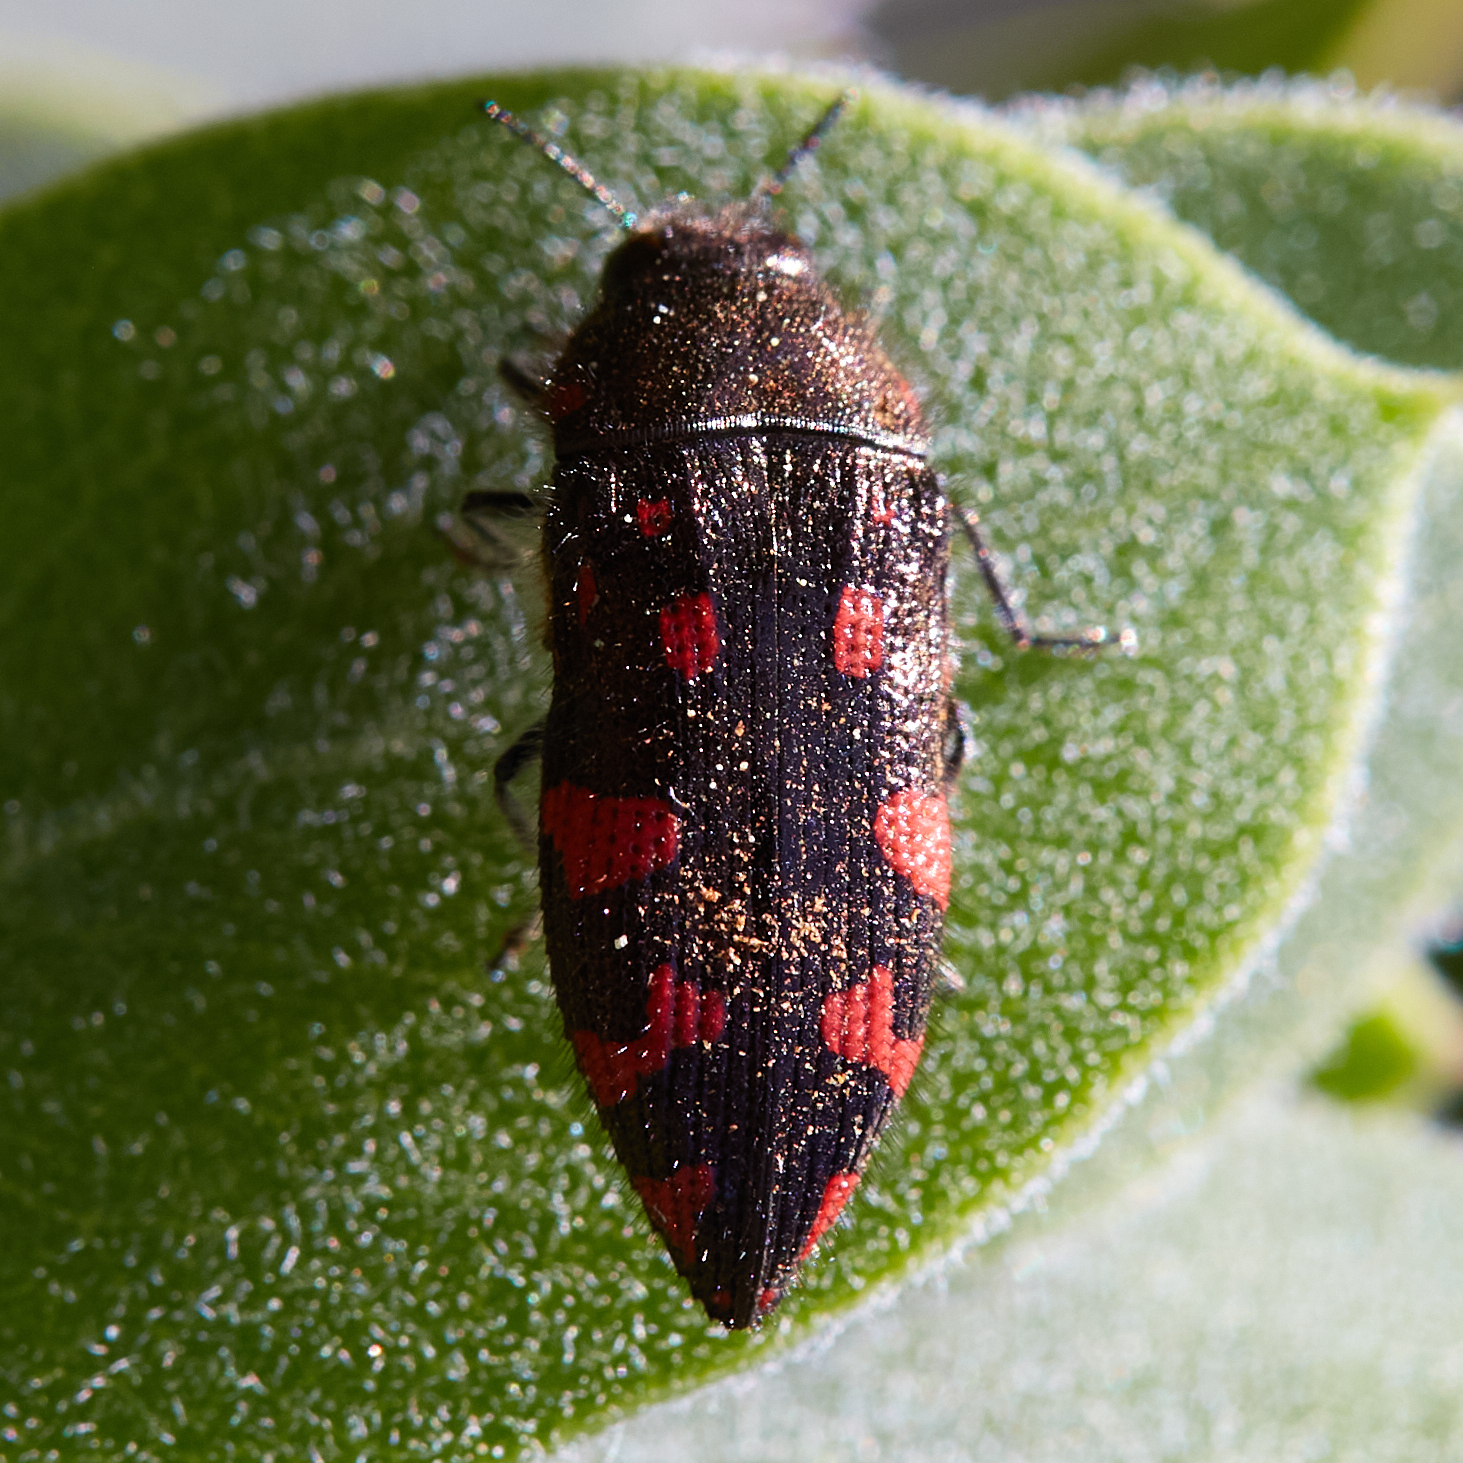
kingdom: Animalia
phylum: Arthropoda
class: Insecta
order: Coleoptera
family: Buprestidae
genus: Acmaeodera
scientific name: Acmaeodera plagiaticauda
